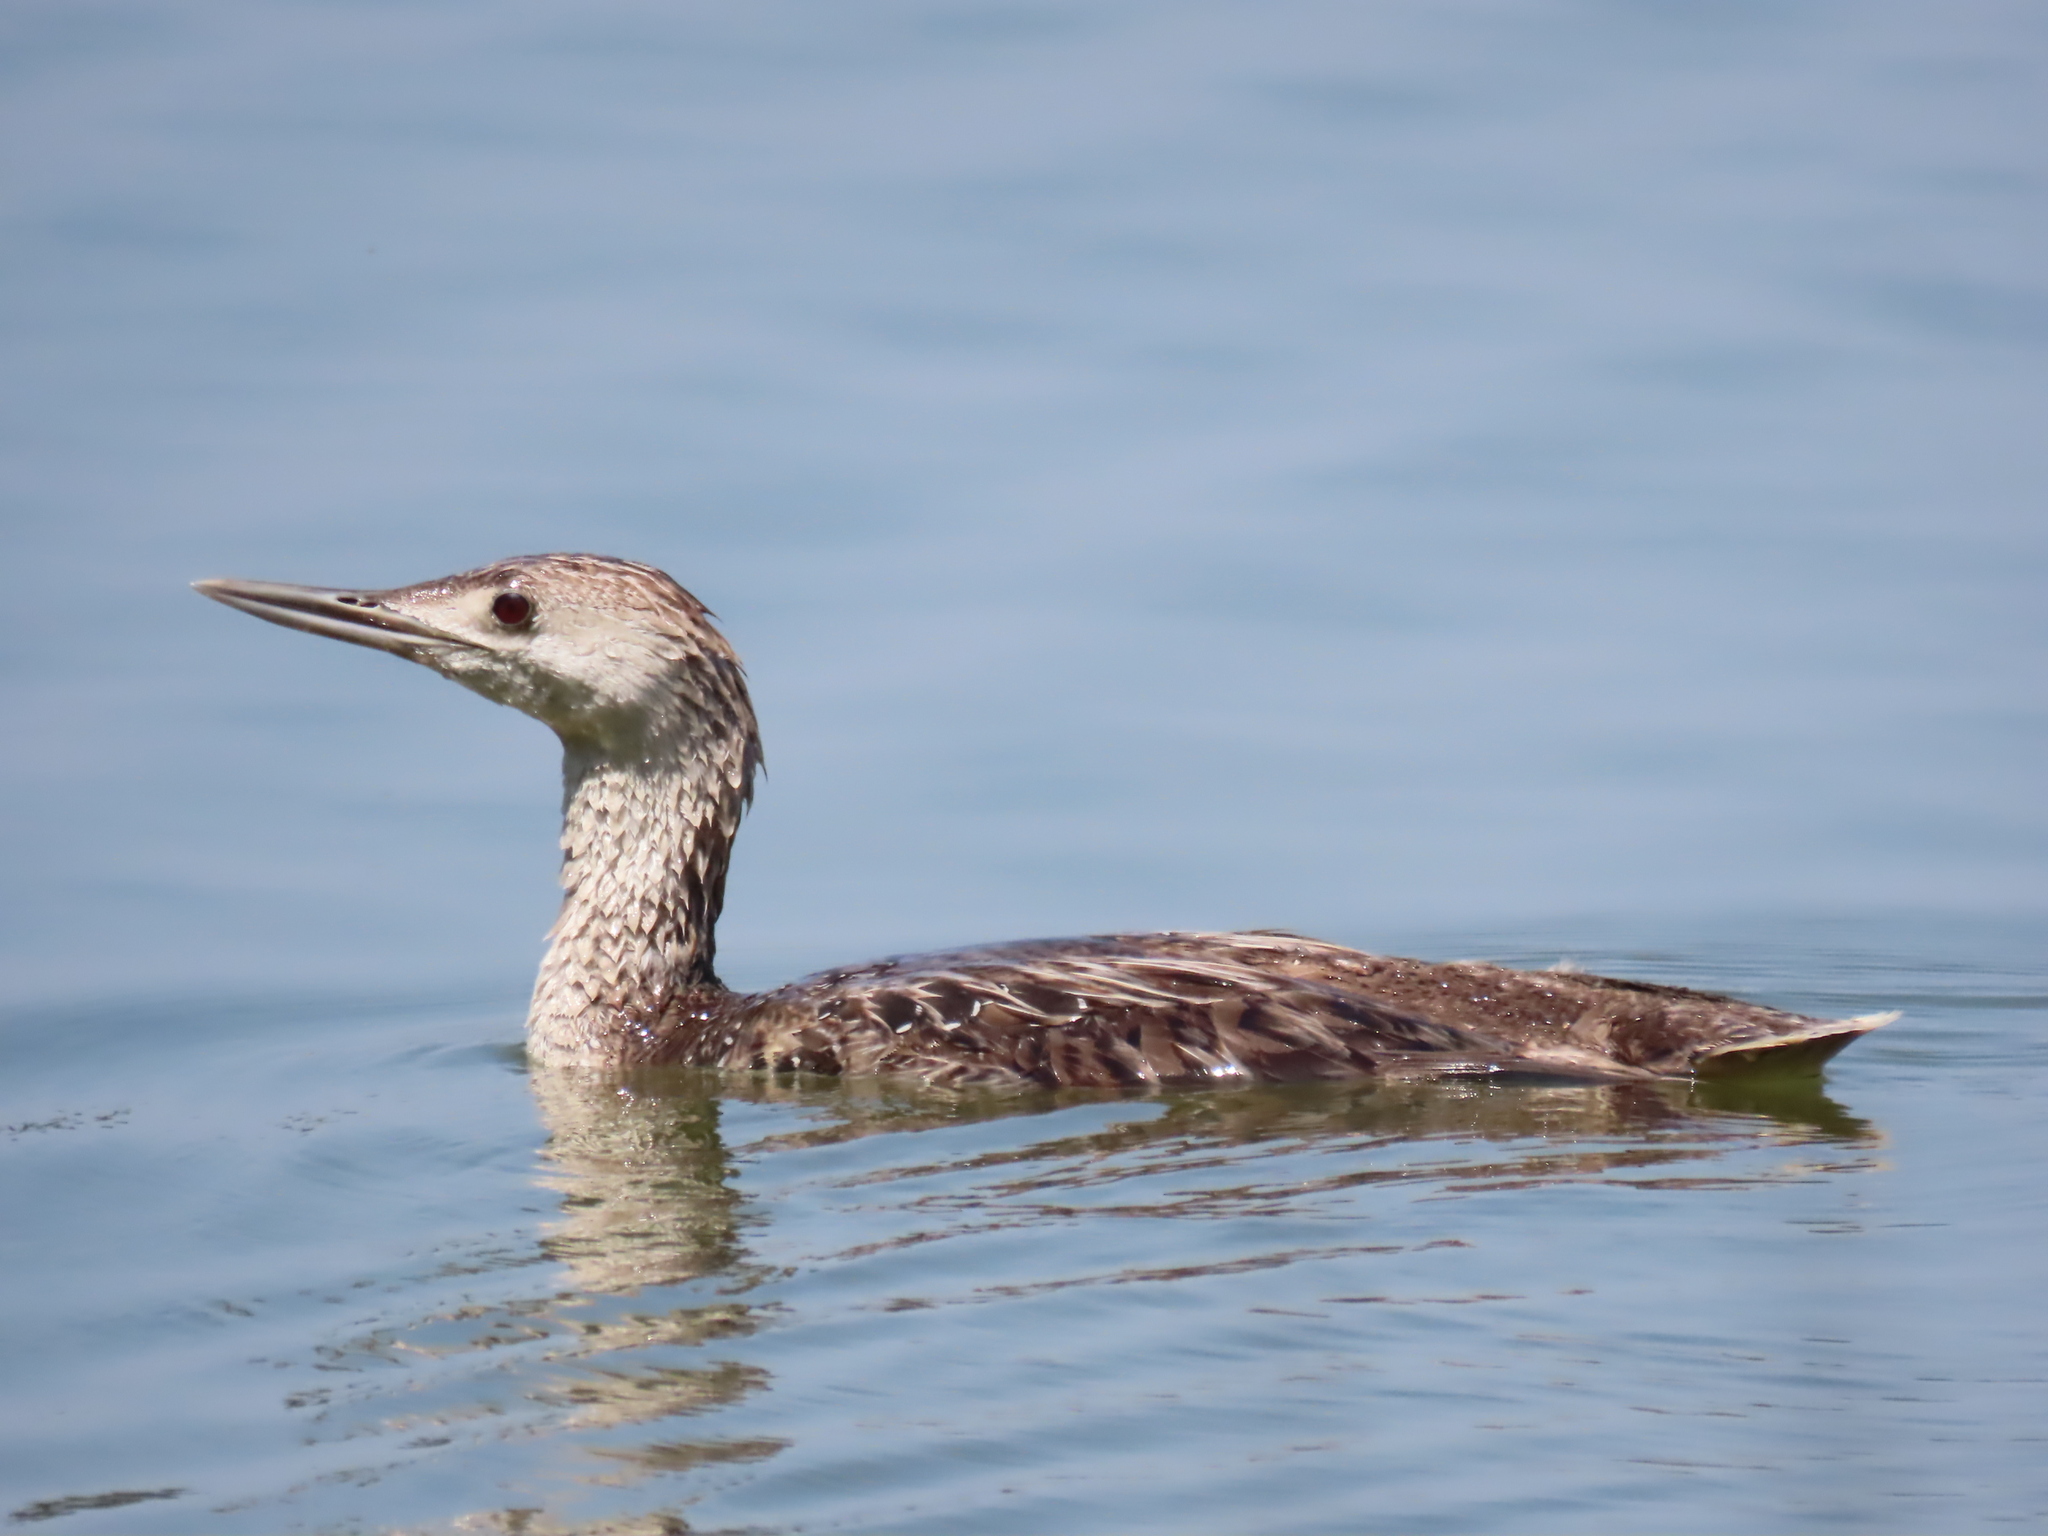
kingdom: Animalia
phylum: Chordata
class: Aves
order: Gaviiformes
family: Gaviidae
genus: Gavia
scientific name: Gavia stellata
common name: Red-throated loon
